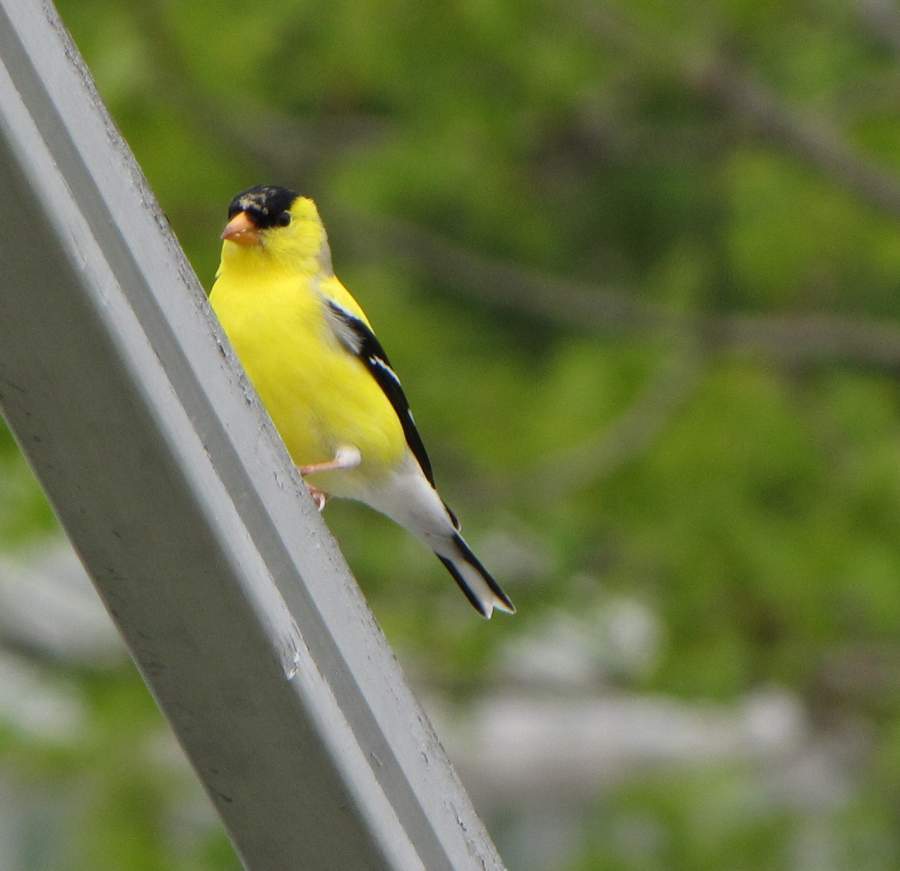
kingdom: Animalia
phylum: Chordata
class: Aves
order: Passeriformes
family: Fringillidae
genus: Spinus
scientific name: Spinus tristis
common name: American goldfinch
